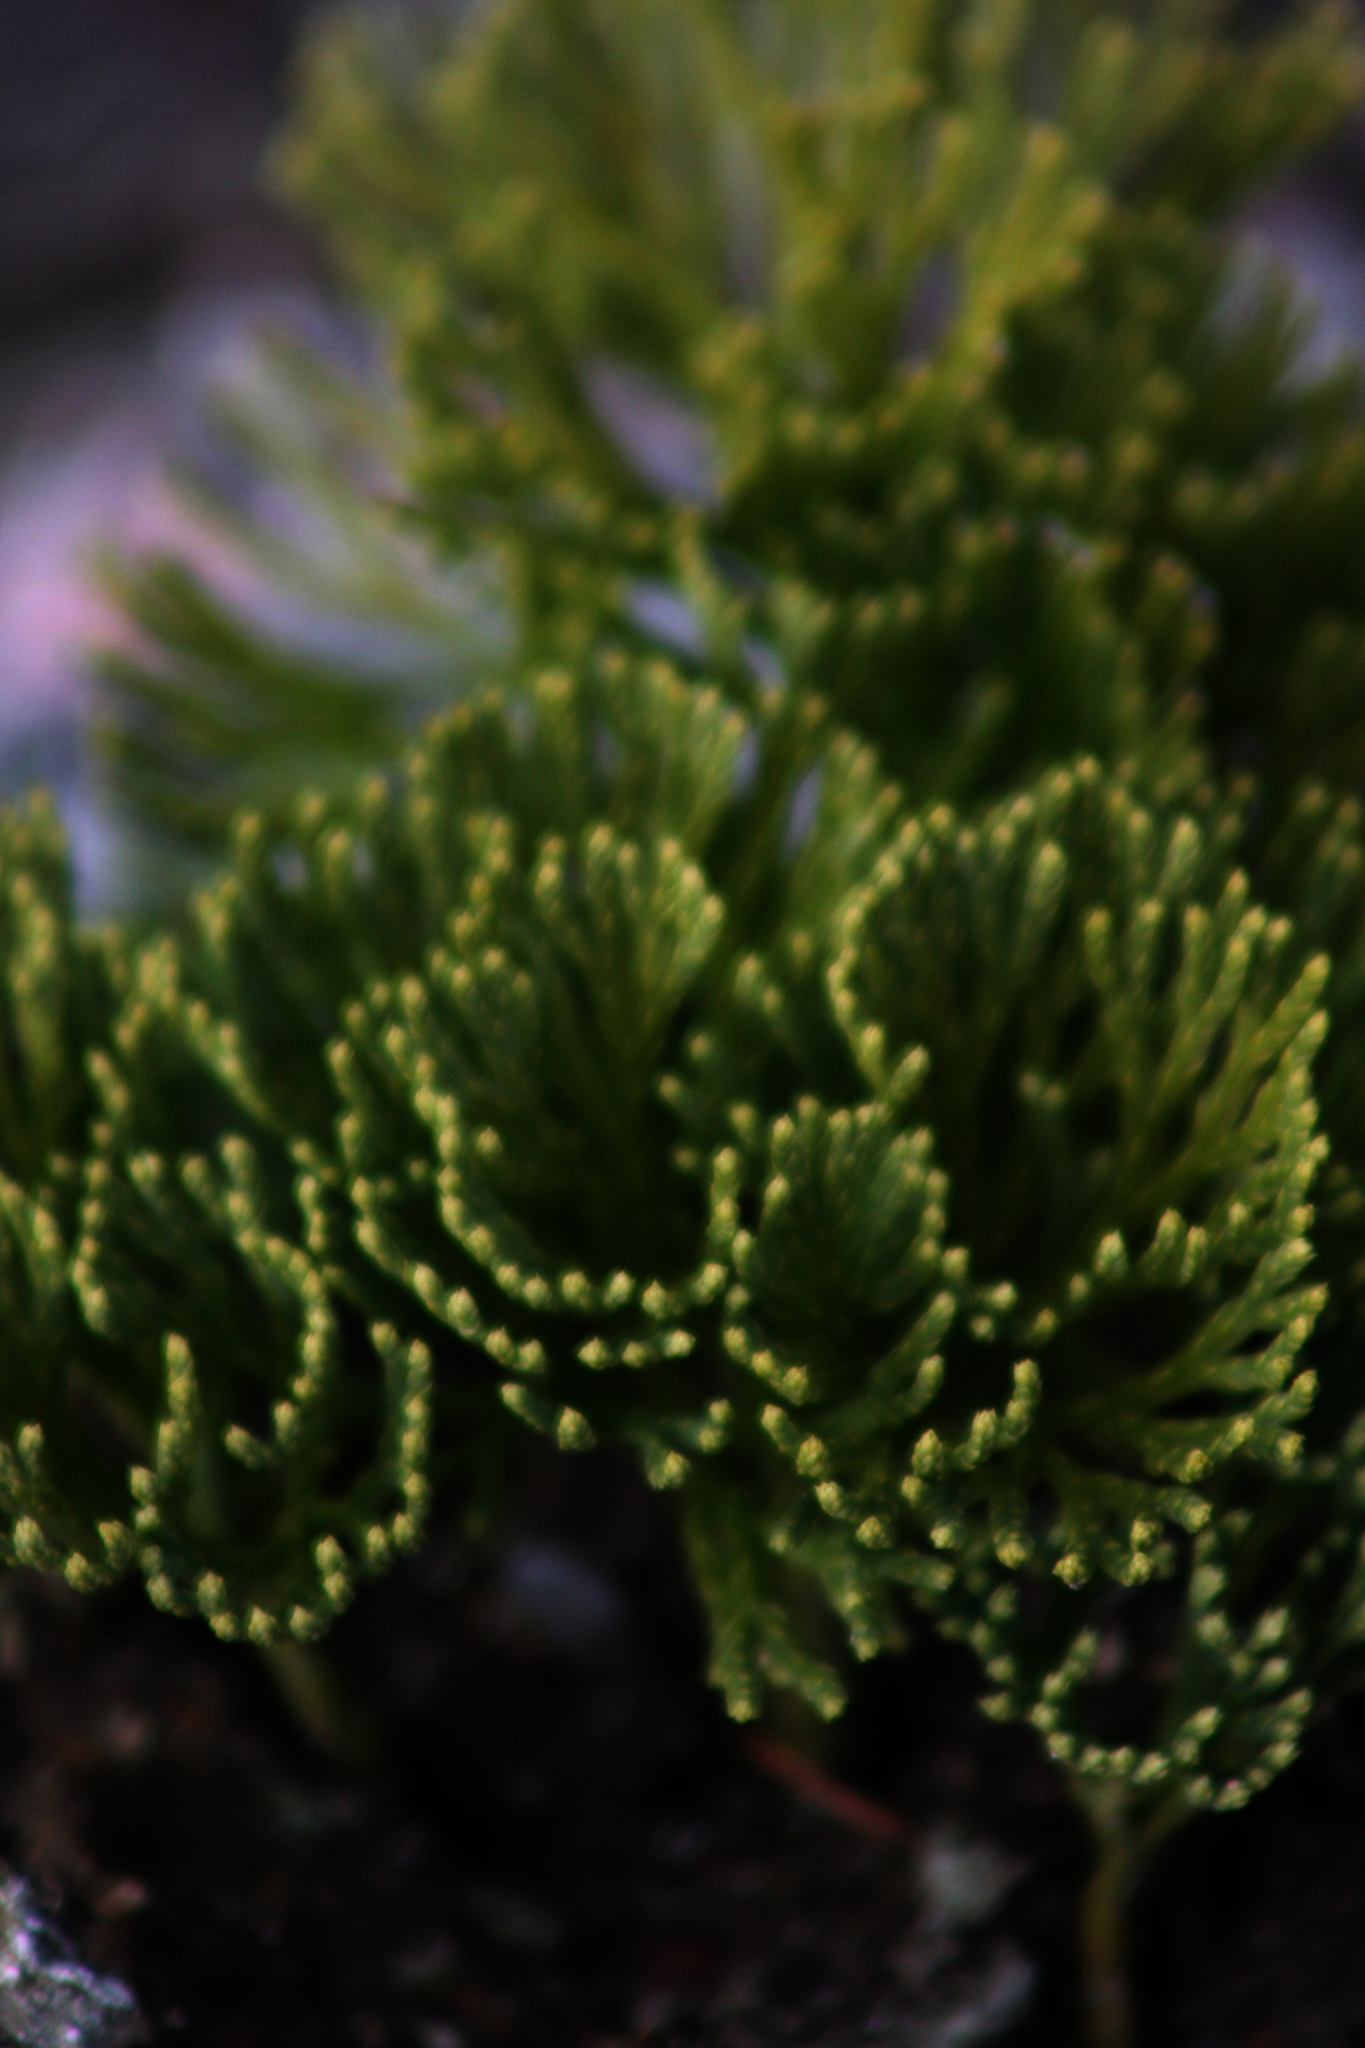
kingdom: Plantae
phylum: Tracheophyta
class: Lycopodiopsida
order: Lycopodiales
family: Lycopodiaceae
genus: Diphasiastrum
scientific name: Diphasiastrum tristachyum
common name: Blue ground-cedar
